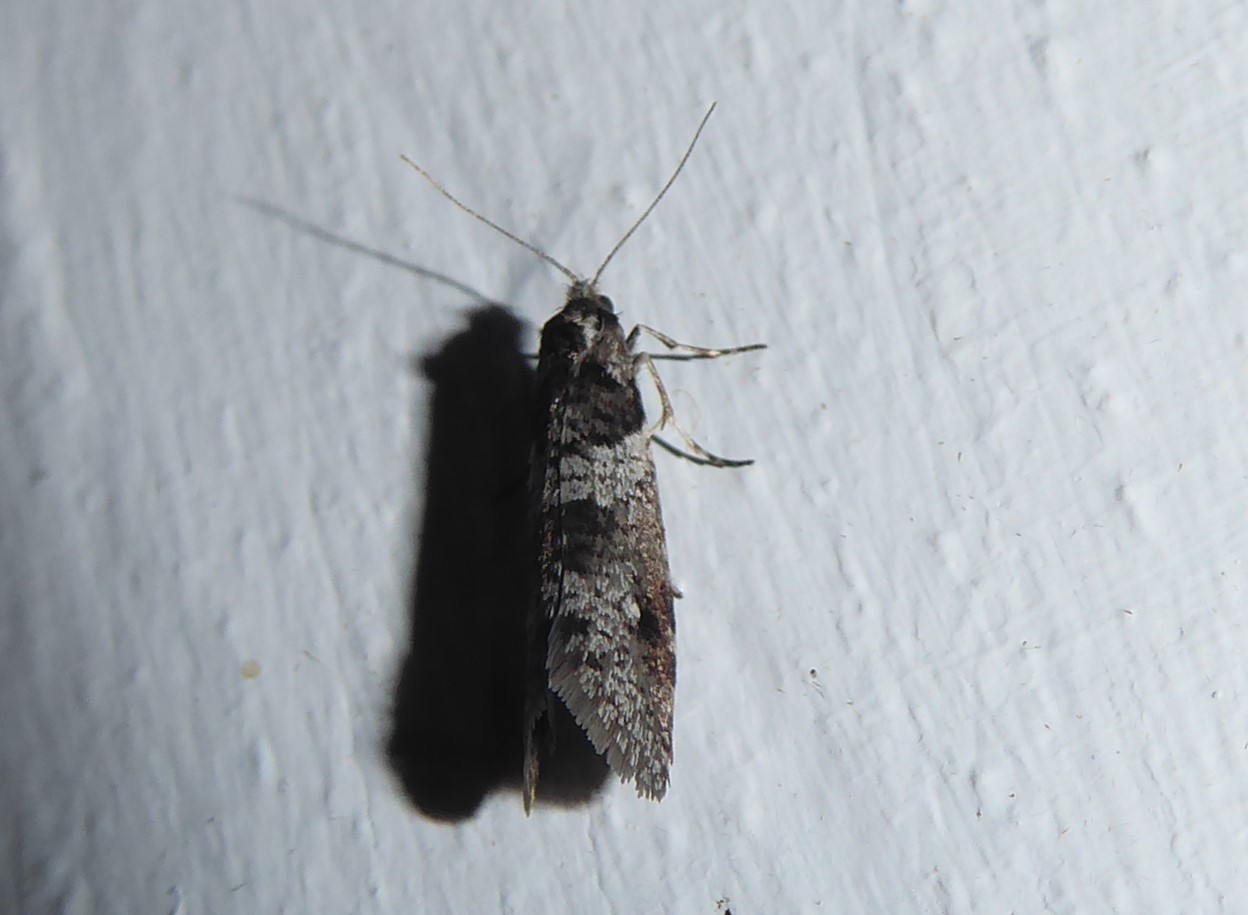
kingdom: Animalia
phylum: Arthropoda
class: Insecta
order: Lepidoptera
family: Psychidae
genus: Lepidoscia
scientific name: Lepidoscia heliochares
